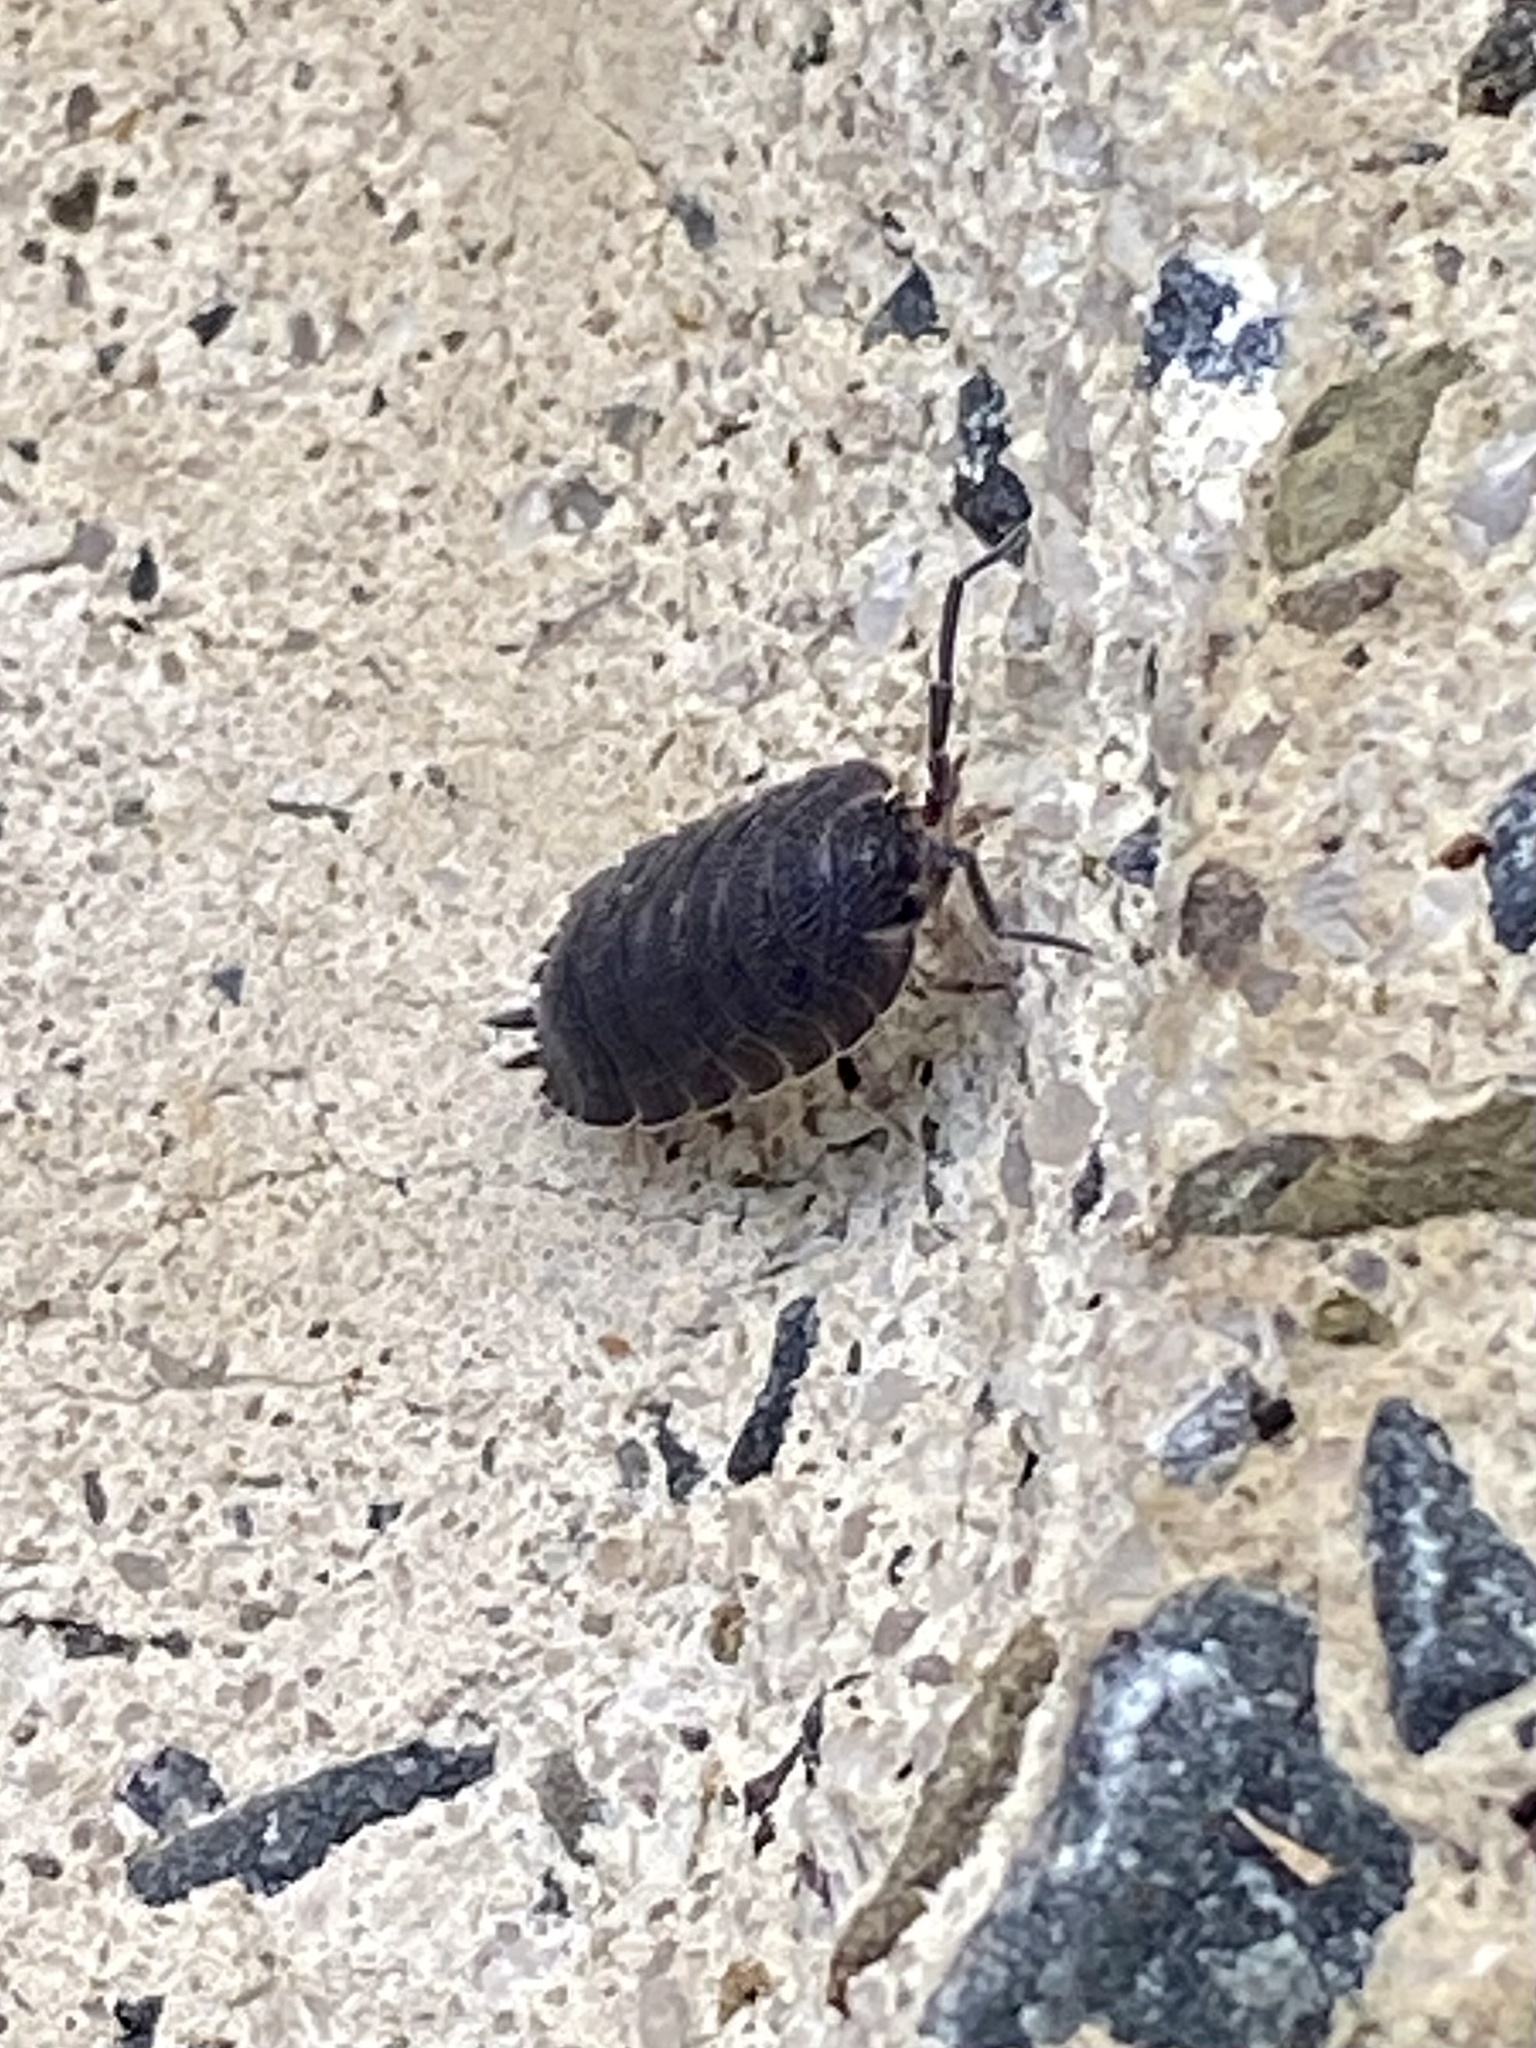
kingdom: Animalia
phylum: Arthropoda
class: Malacostraca
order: Isopoda
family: Porcellionidae
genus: Porcellio
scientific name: Porcellio scaber
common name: Common rough woodlouse
